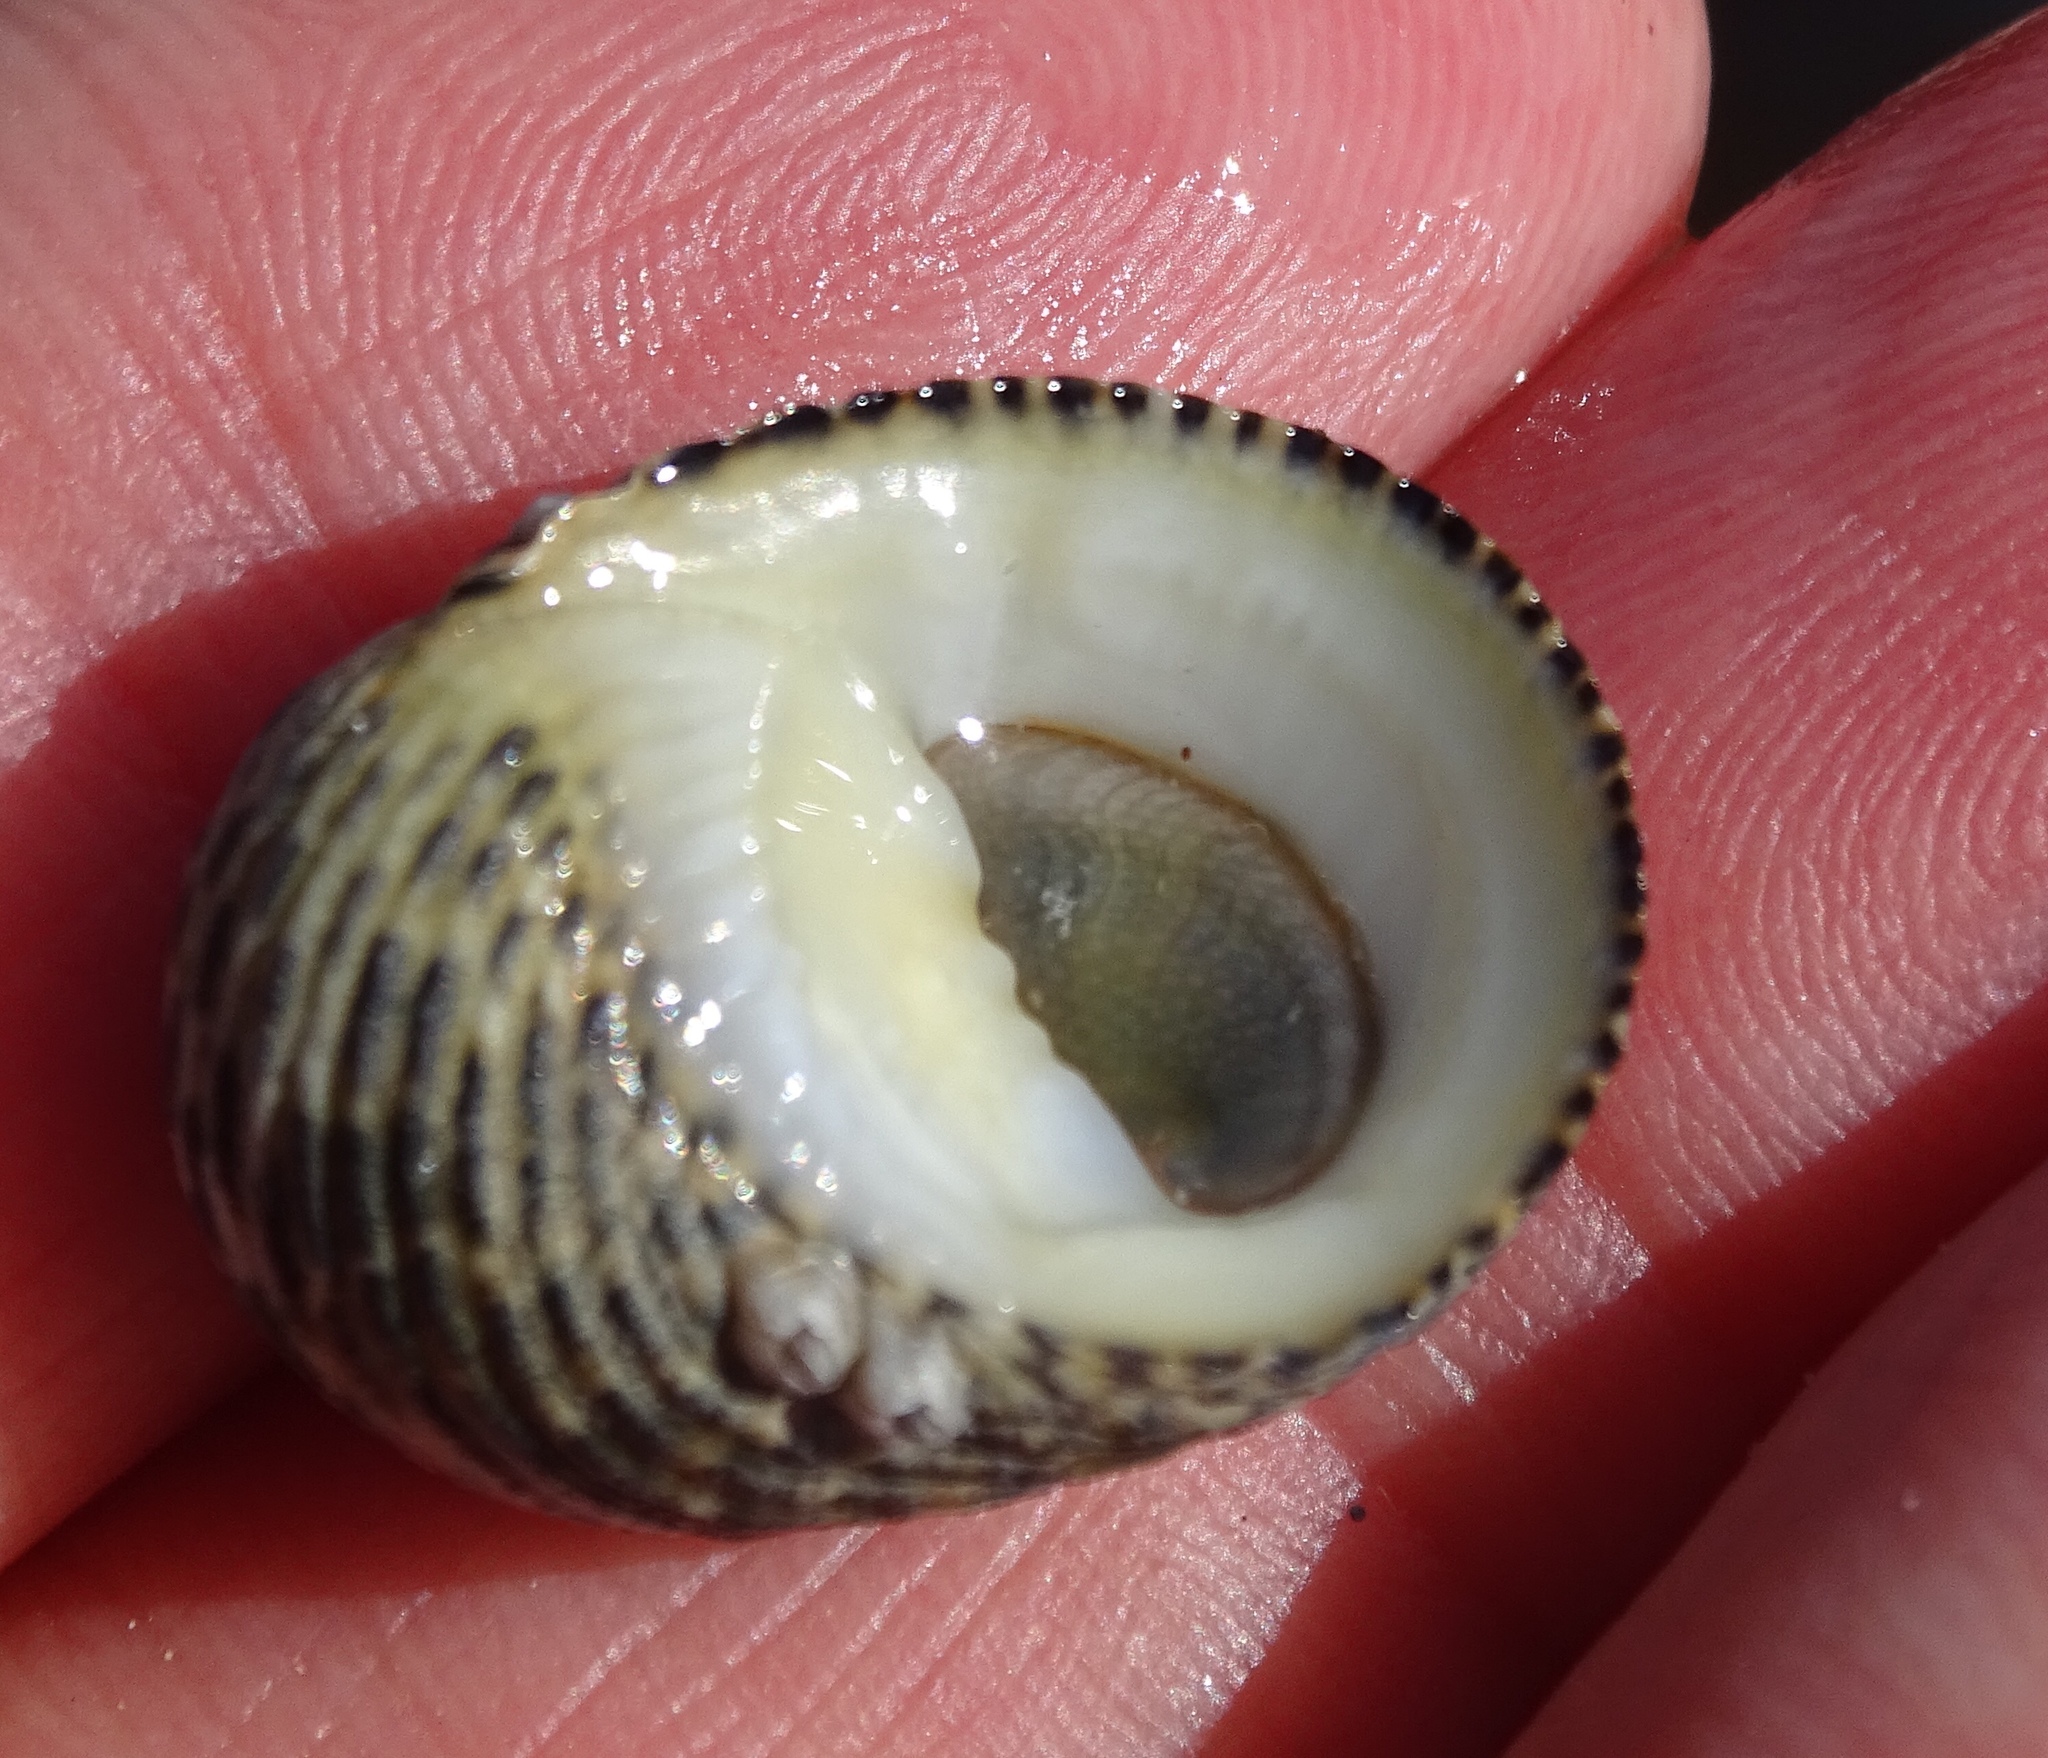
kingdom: Animalia
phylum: Mollusca
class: Gastropoda
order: Cycloneritida
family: Neritidae
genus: Nerita
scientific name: Nerita tessellata
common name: Checkered nerite
